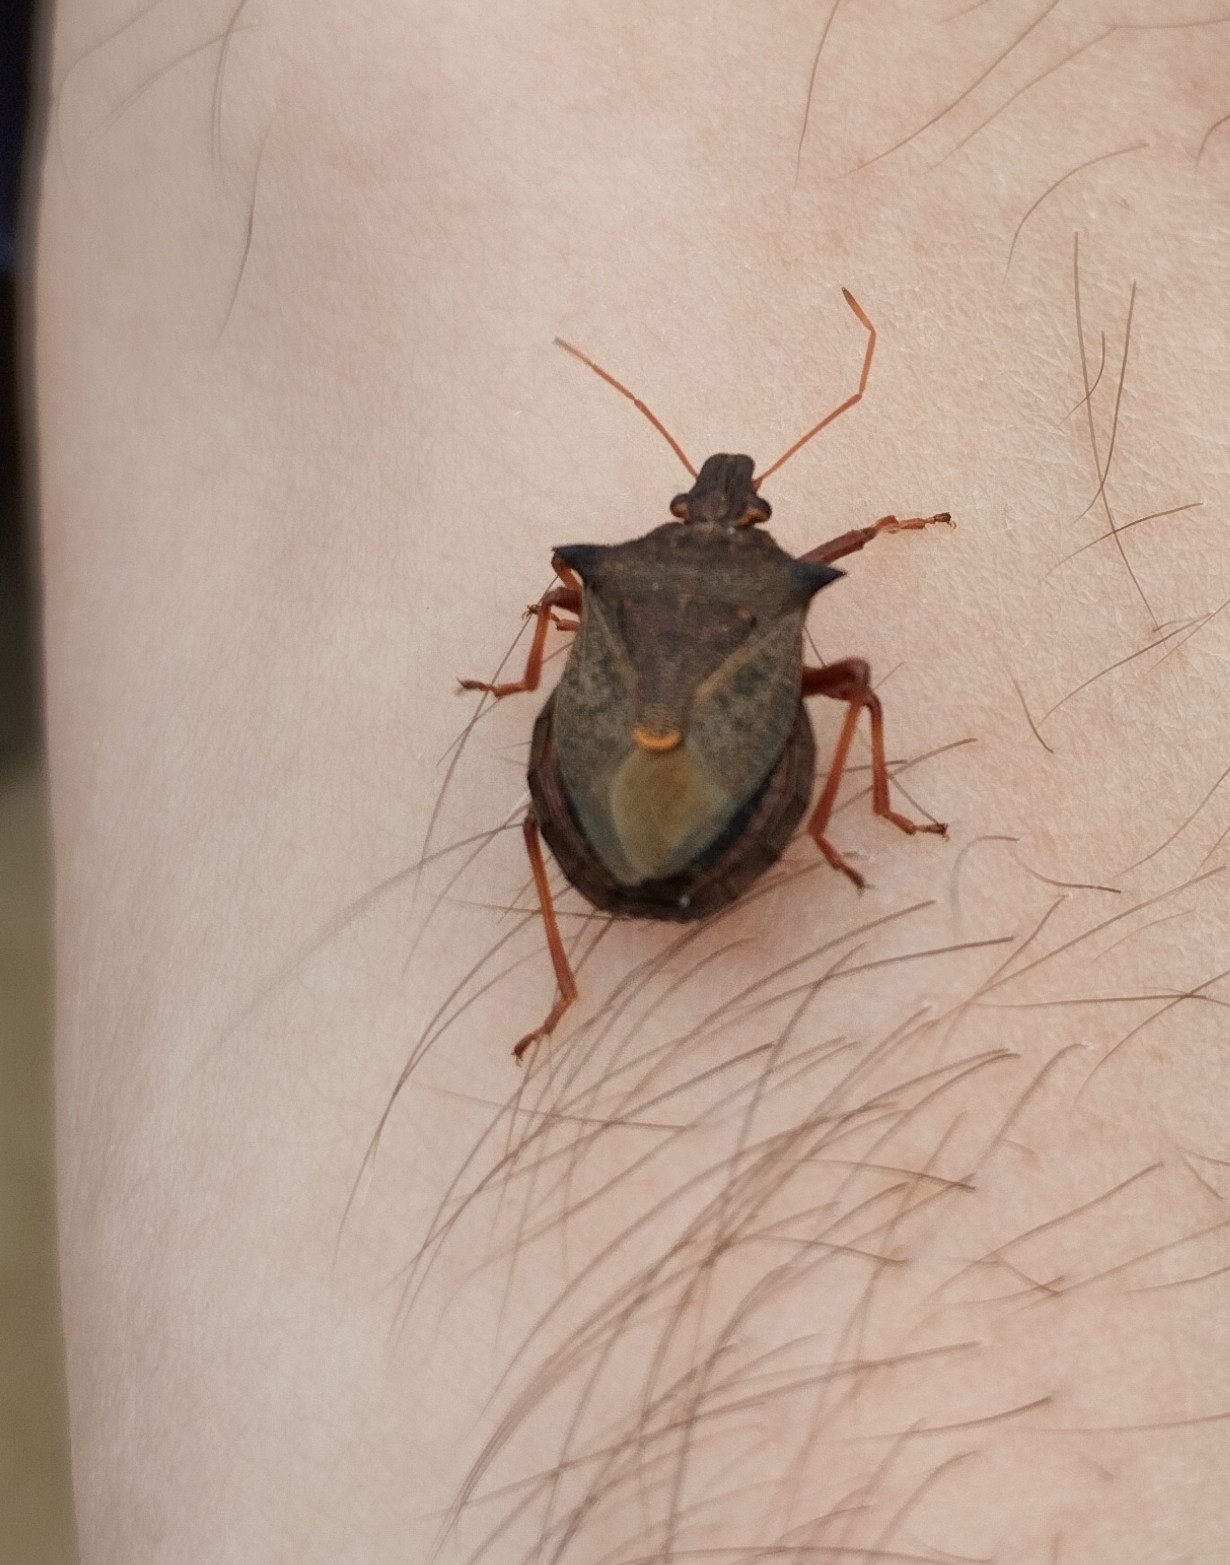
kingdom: Animalia
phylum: Arthropoda
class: Insecta
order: Hemiptera
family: Pentatomidae
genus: Picromerus
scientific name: Picromerus bidens
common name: Spiked shieldbug
